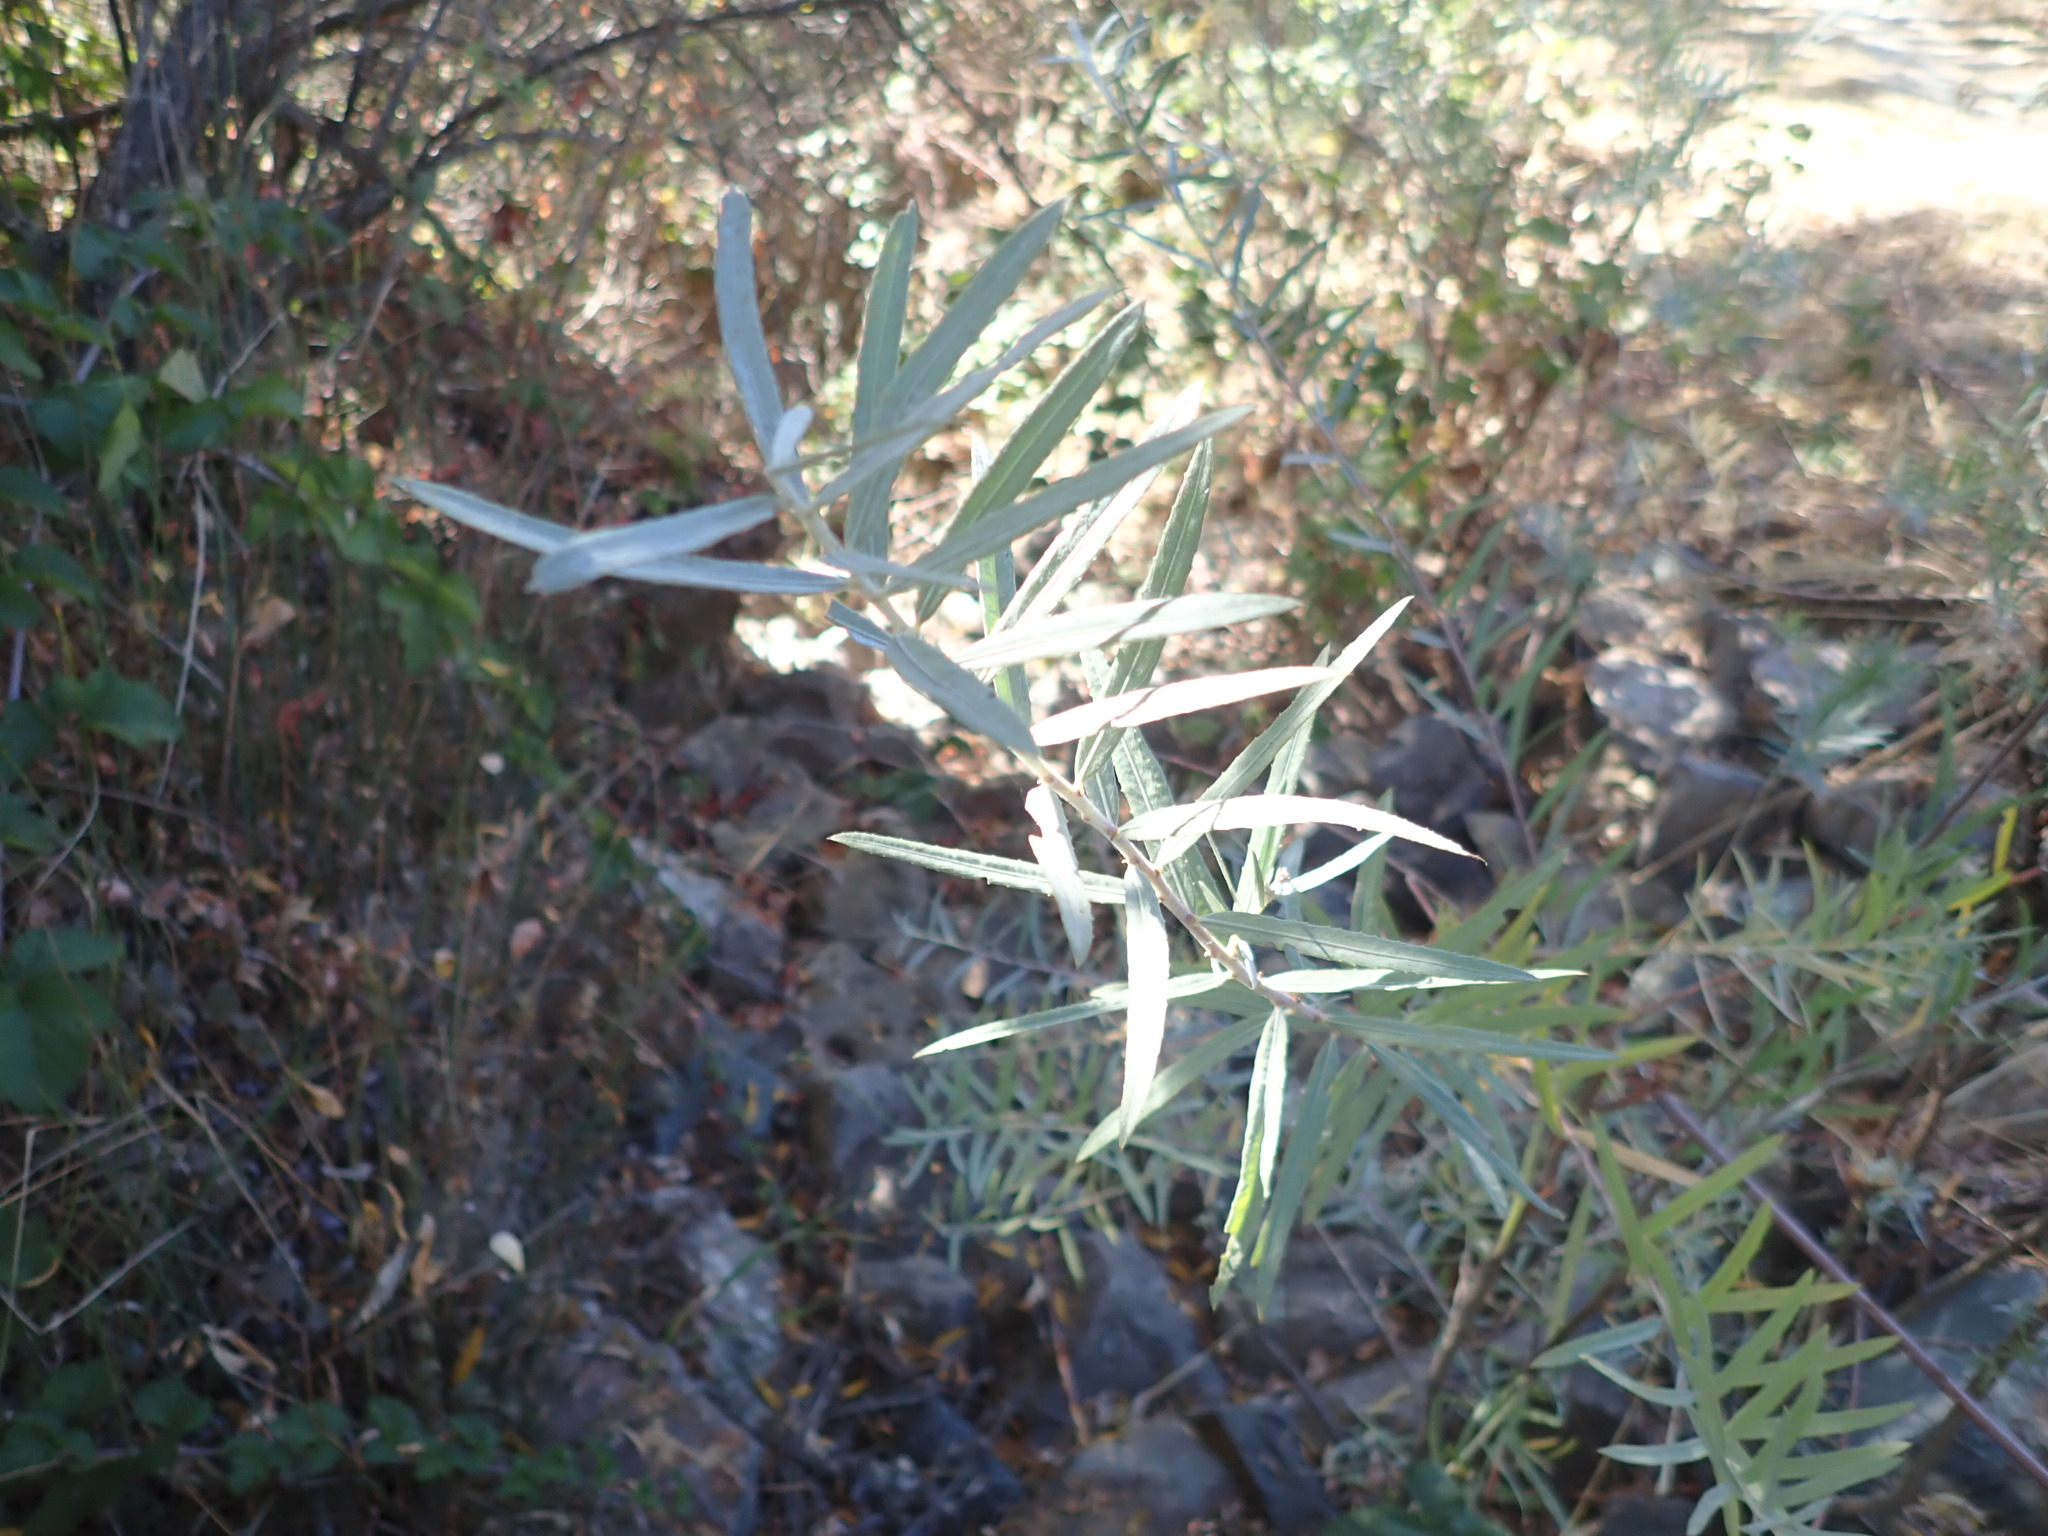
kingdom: Plantae
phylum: Tracheophyta
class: Magnoliopsida
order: Malpighiales
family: Salicaceae
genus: Salix
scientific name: Salix exigua
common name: Coyote willow
